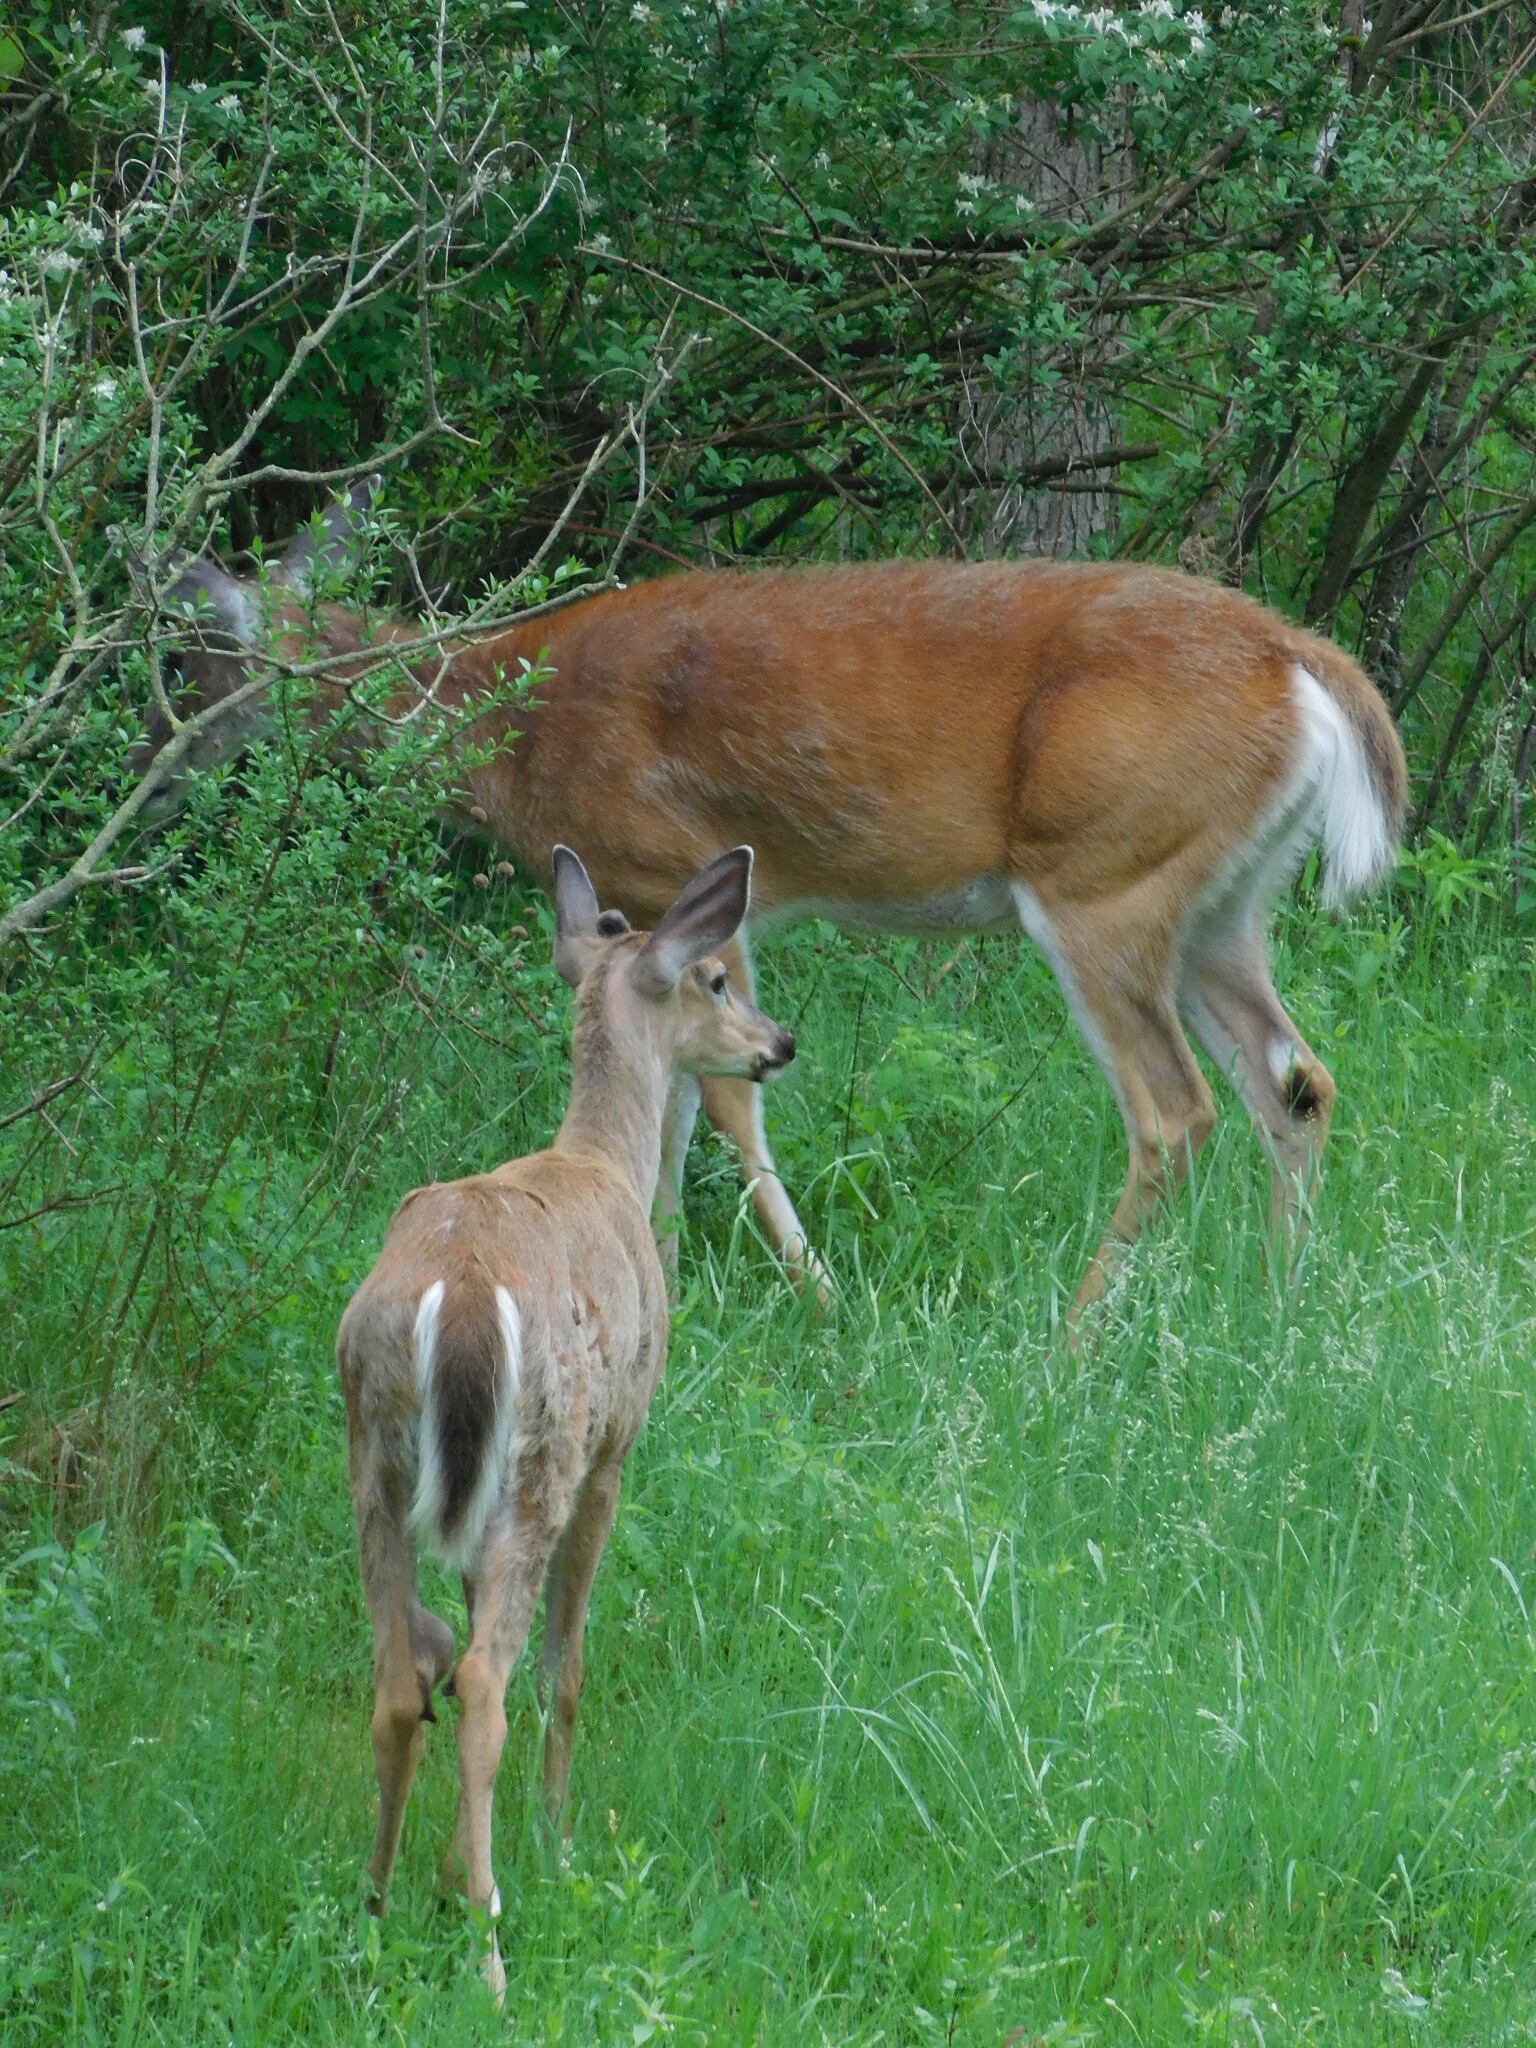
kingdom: Animalia
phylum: Chordata
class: Mammalia
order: Artiodactyla
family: Cervidae
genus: Odocoileus
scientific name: Odocoileus virginianus
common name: White-tailed deer
